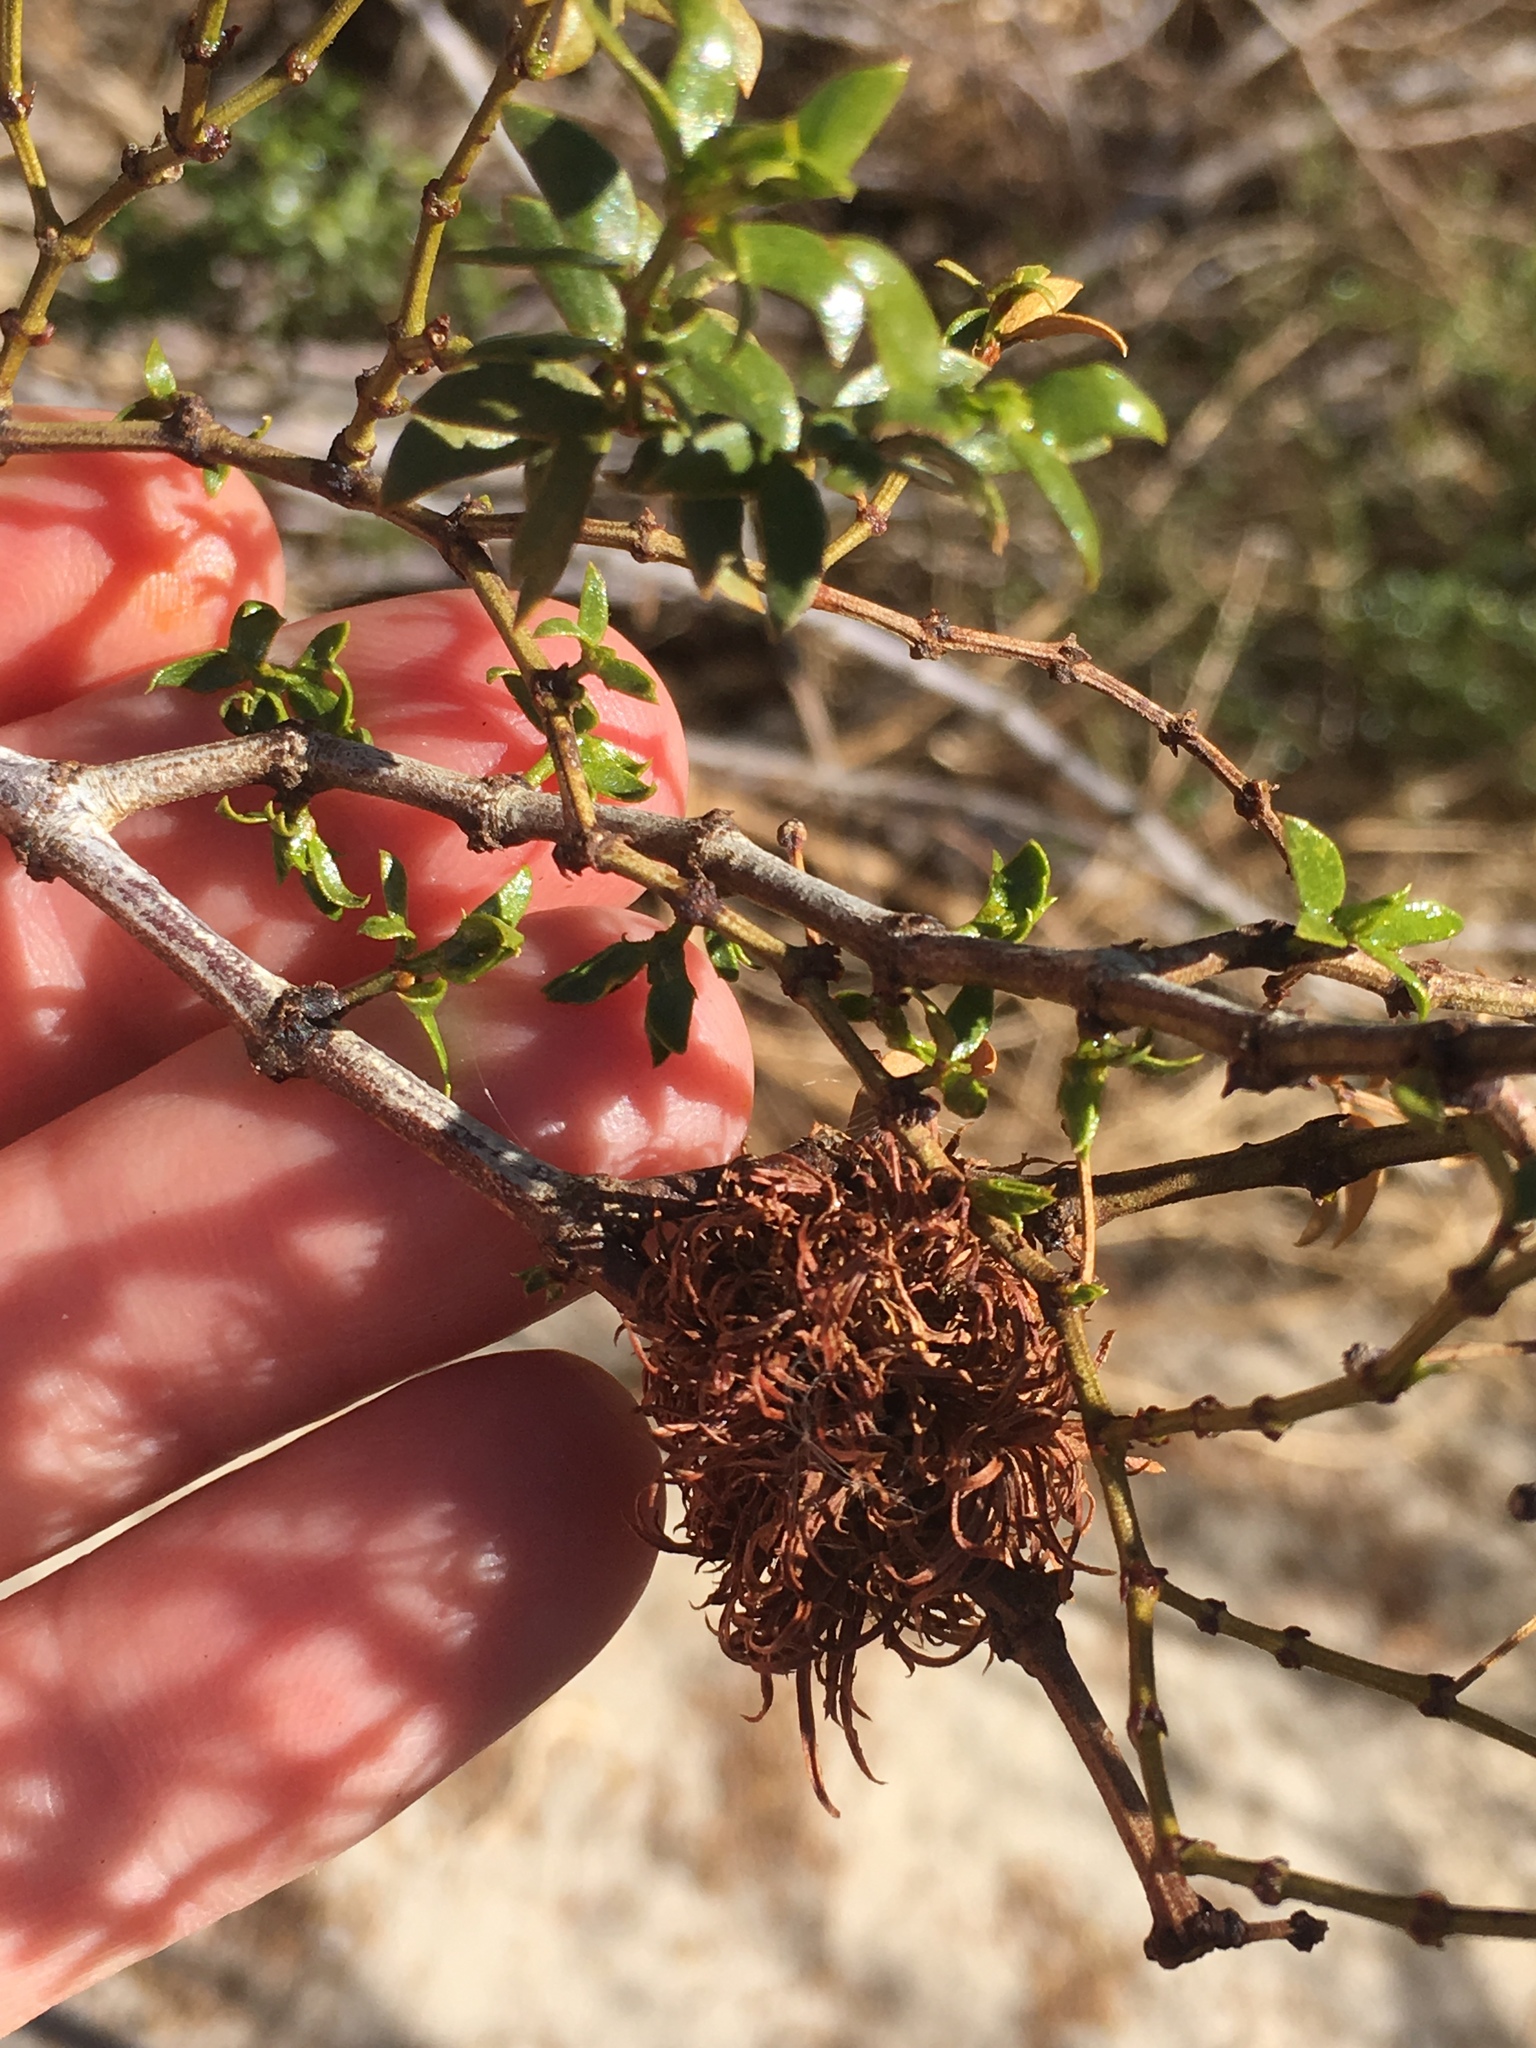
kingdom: Animalia
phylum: Arthropoda
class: Insecta
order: Diptera
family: Cecidomyiidae
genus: Asphondylia
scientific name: Asphondylia auripila
